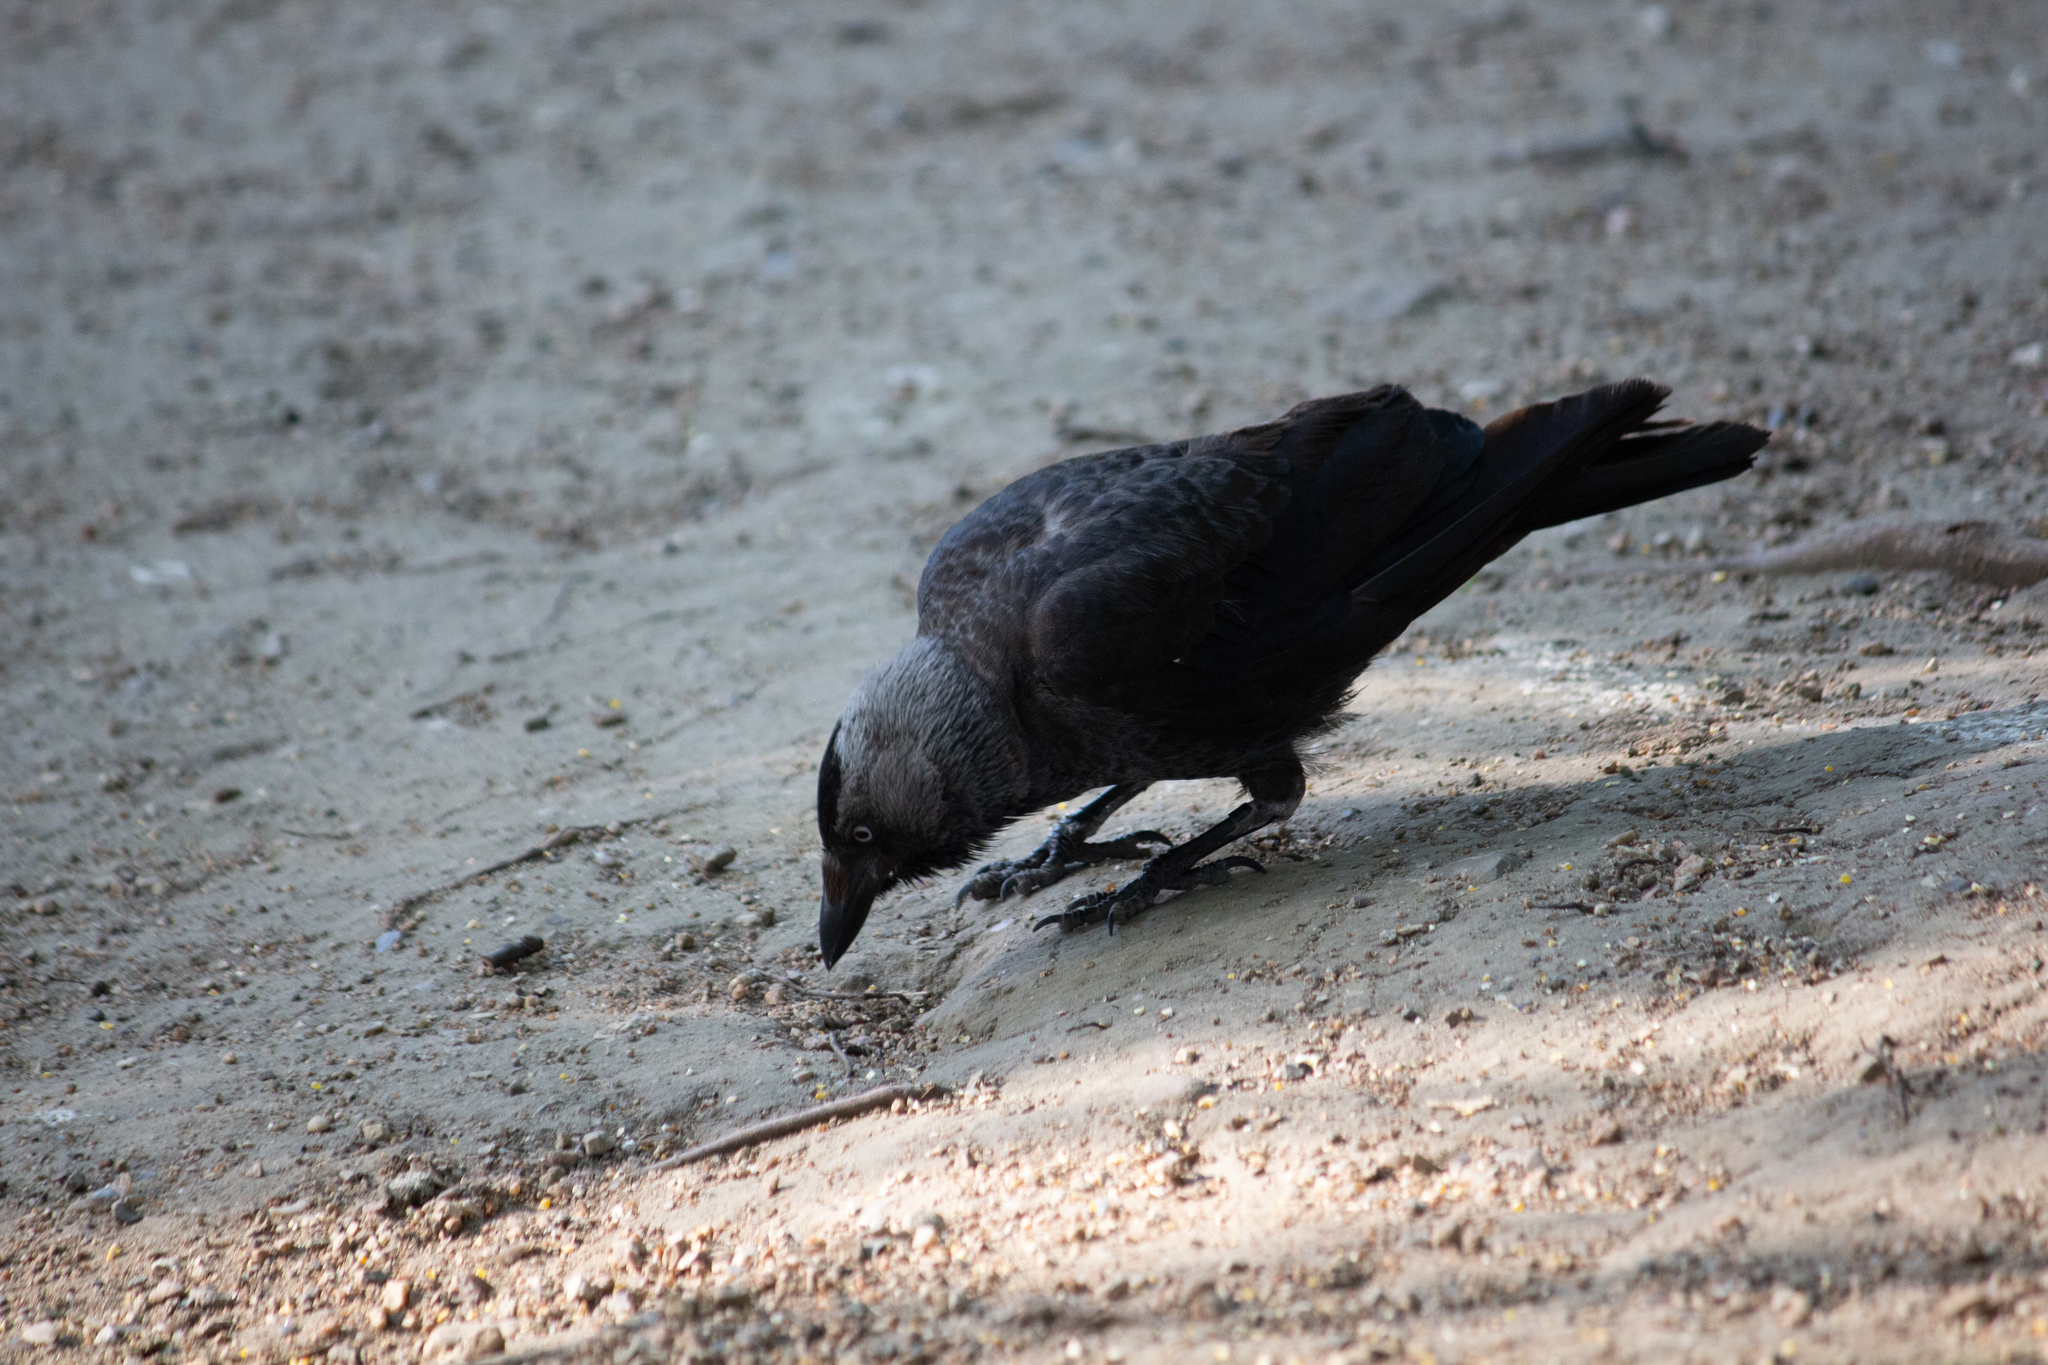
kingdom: Animalia
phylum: Chordata
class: Aves
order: Passeriformes
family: Corvidae
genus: Coloeus
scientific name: Coloeus monedula
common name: Western jackdaw
